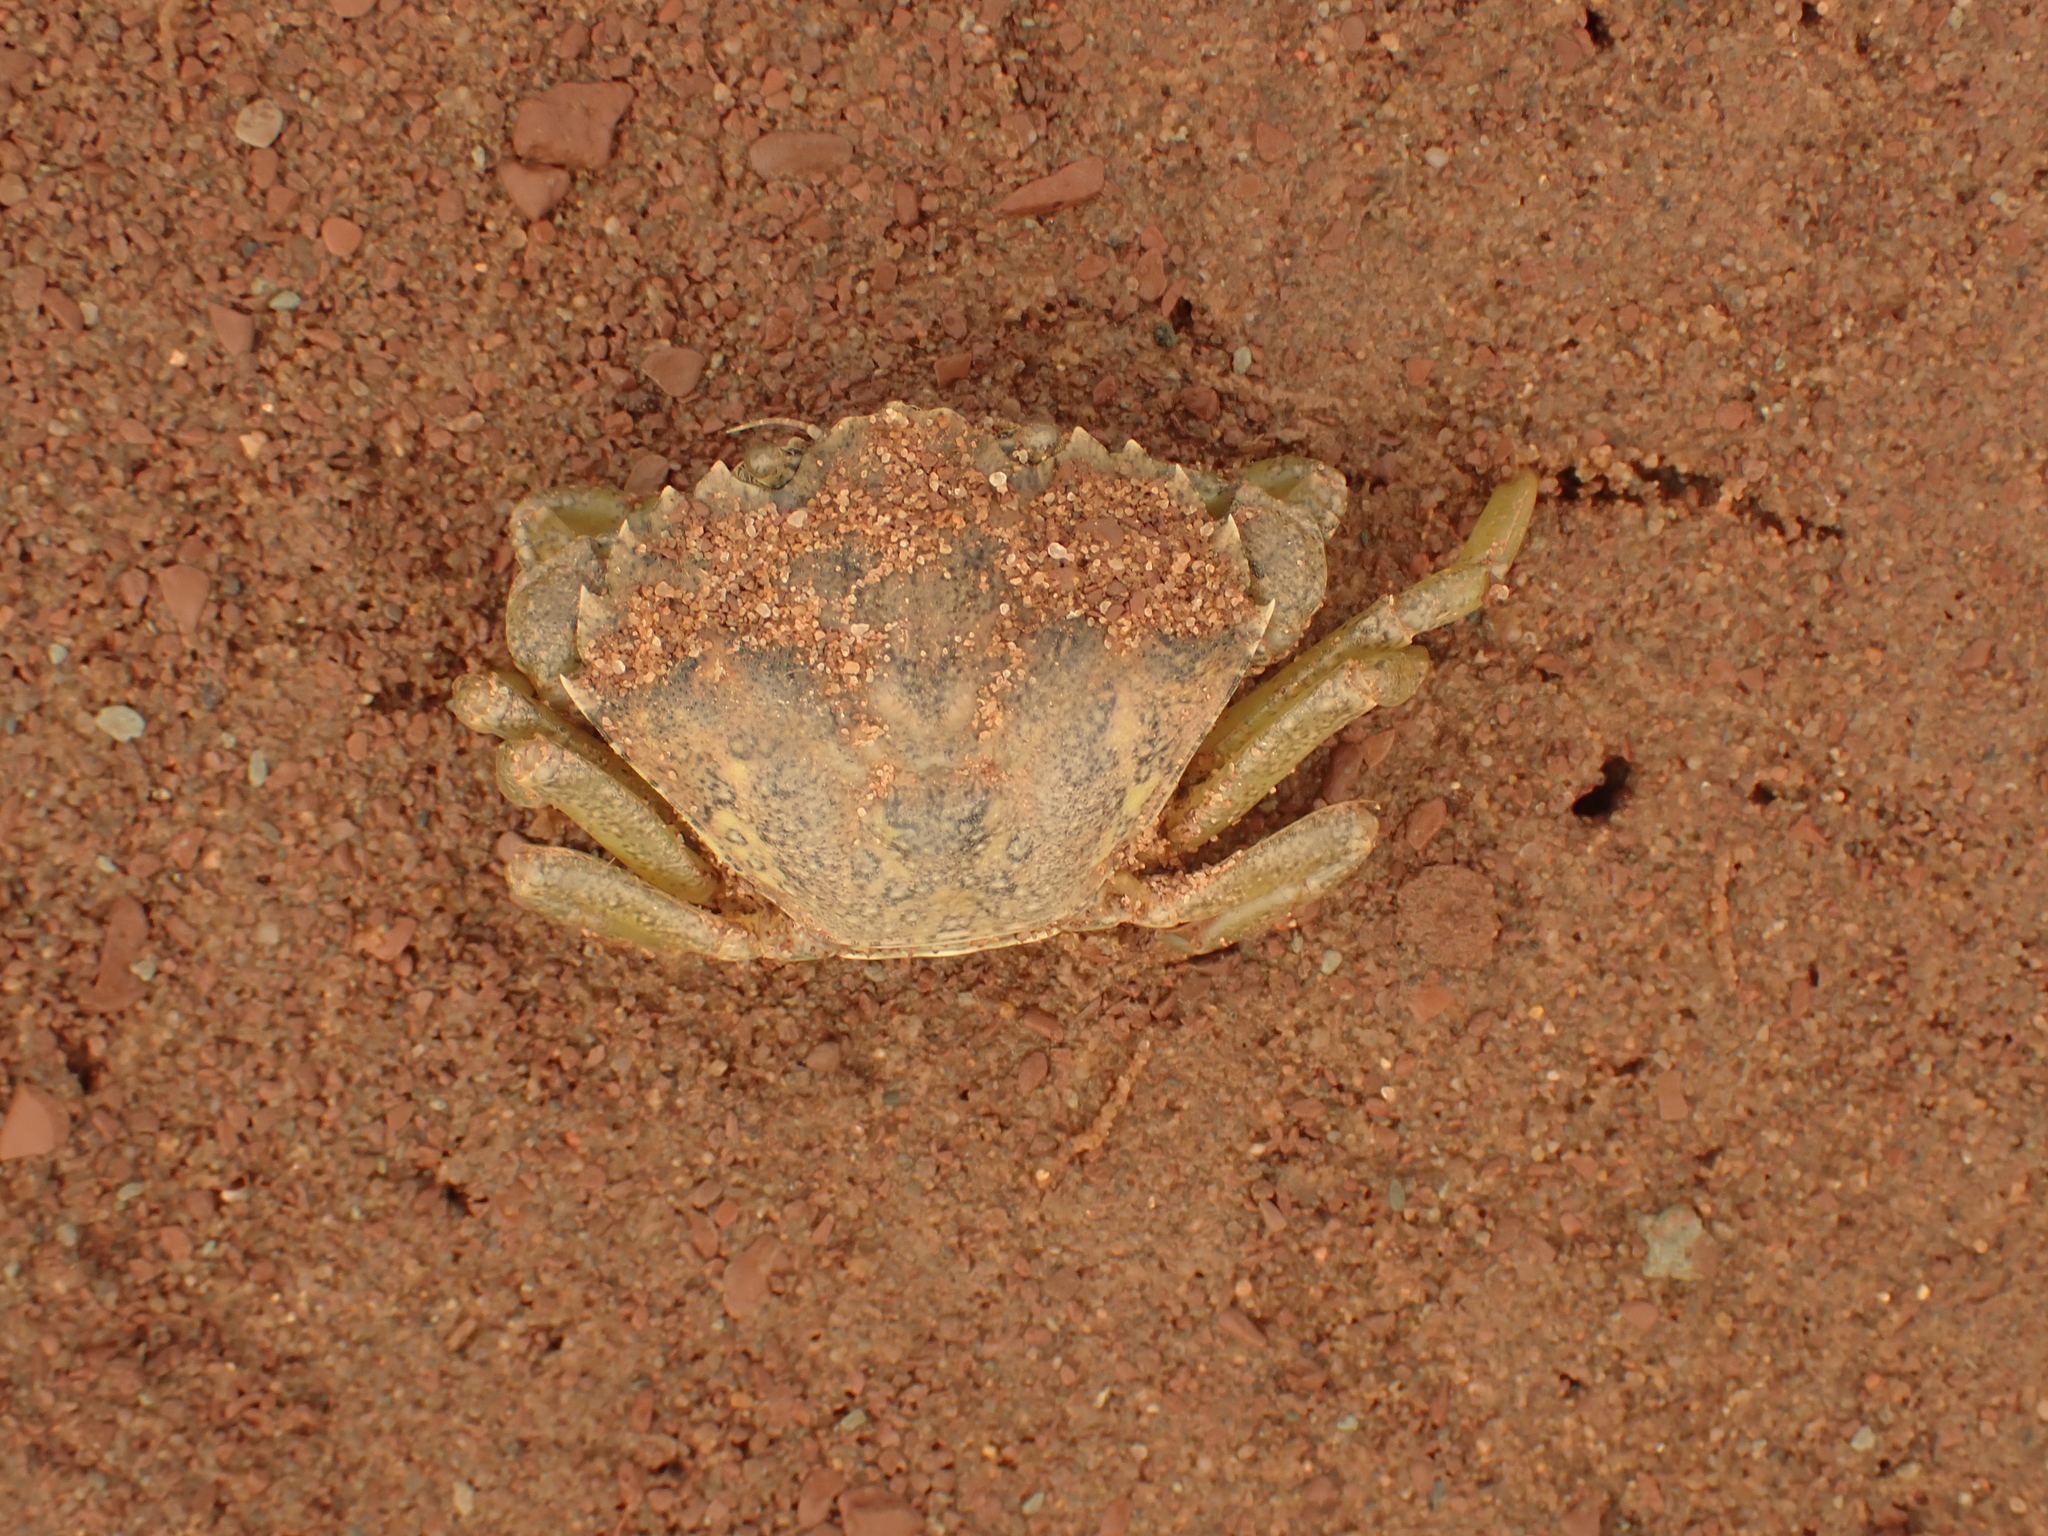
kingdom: Animalia
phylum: Arthropoda
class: Malacostraca
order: Decapoda
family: Carcinidae
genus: Carcinus
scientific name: Carcinus maenas
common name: European green crab
